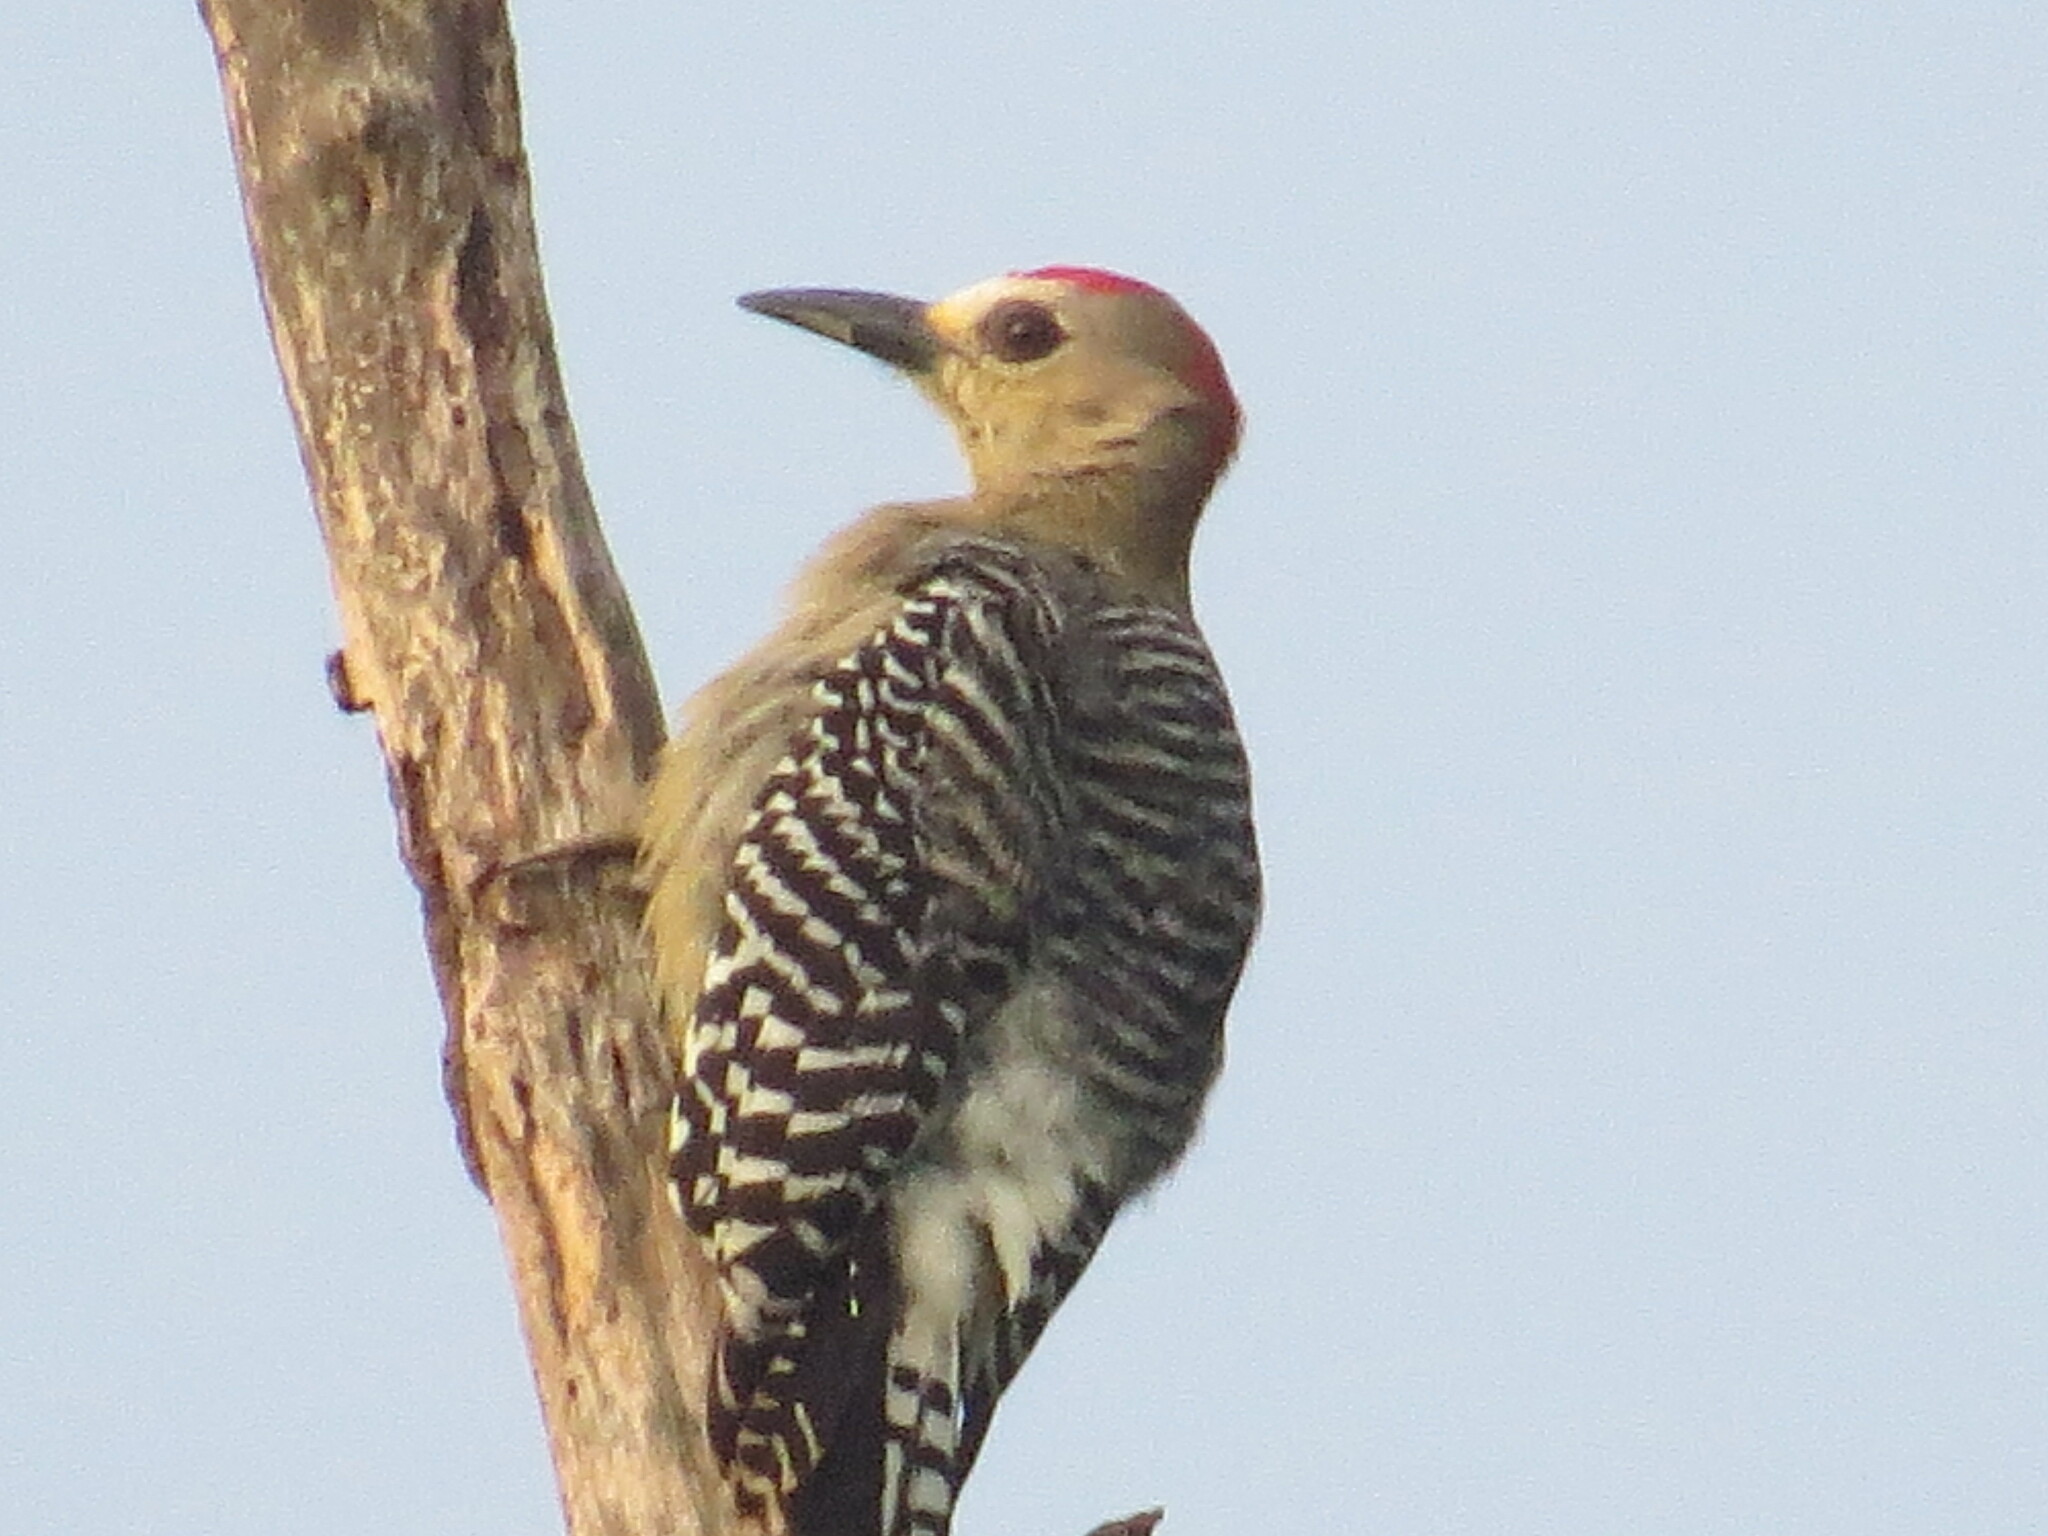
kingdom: Animalia
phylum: Chordata
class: Aves
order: Piciformes
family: Picidae
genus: Melanerpes
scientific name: Melanerpes rubricapillus
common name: Red-crowned woodpecker
